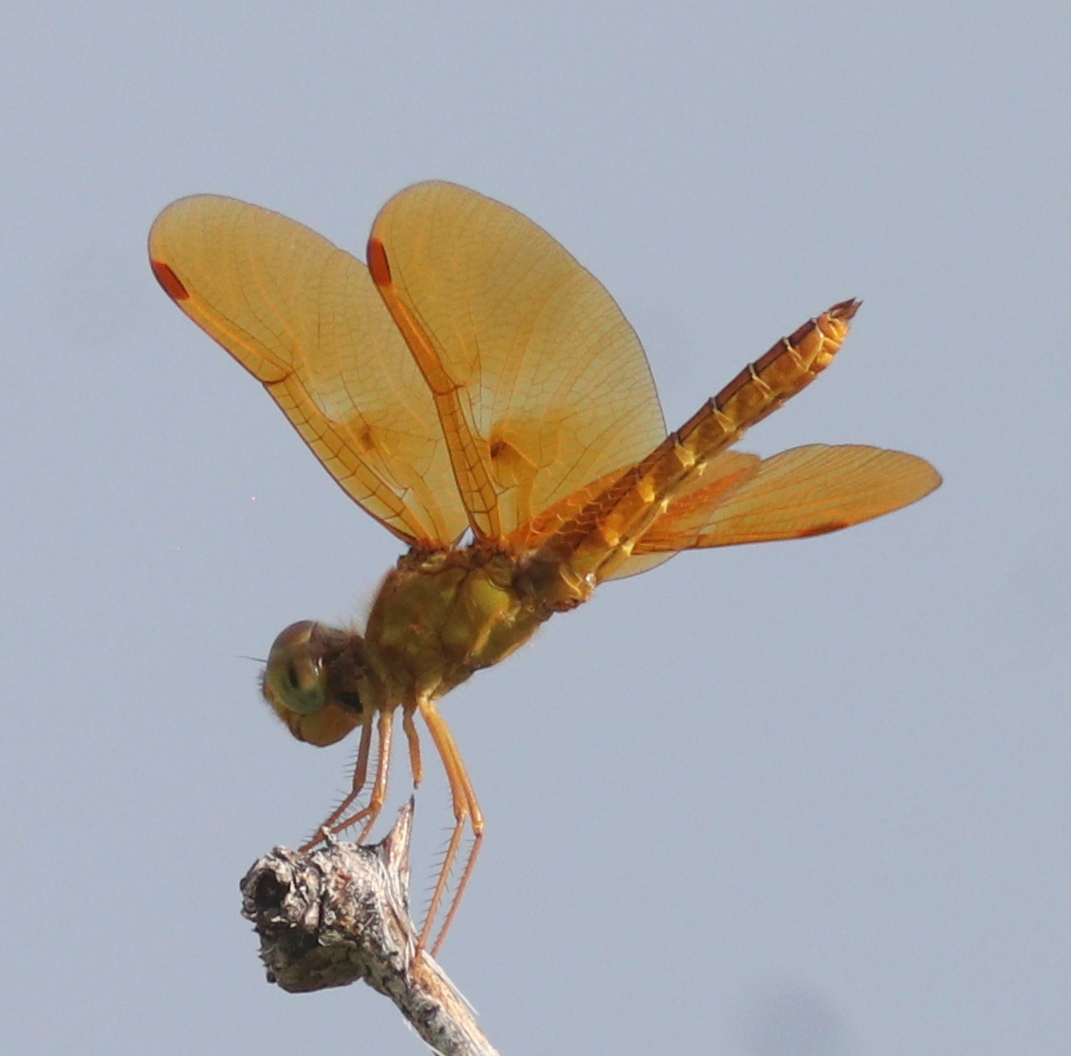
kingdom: Animalia
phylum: Arthropoda
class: Insecta
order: Odonata
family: Libellulidae
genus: Perithemis
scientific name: Perithemis intensa
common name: Mexican amberwing
